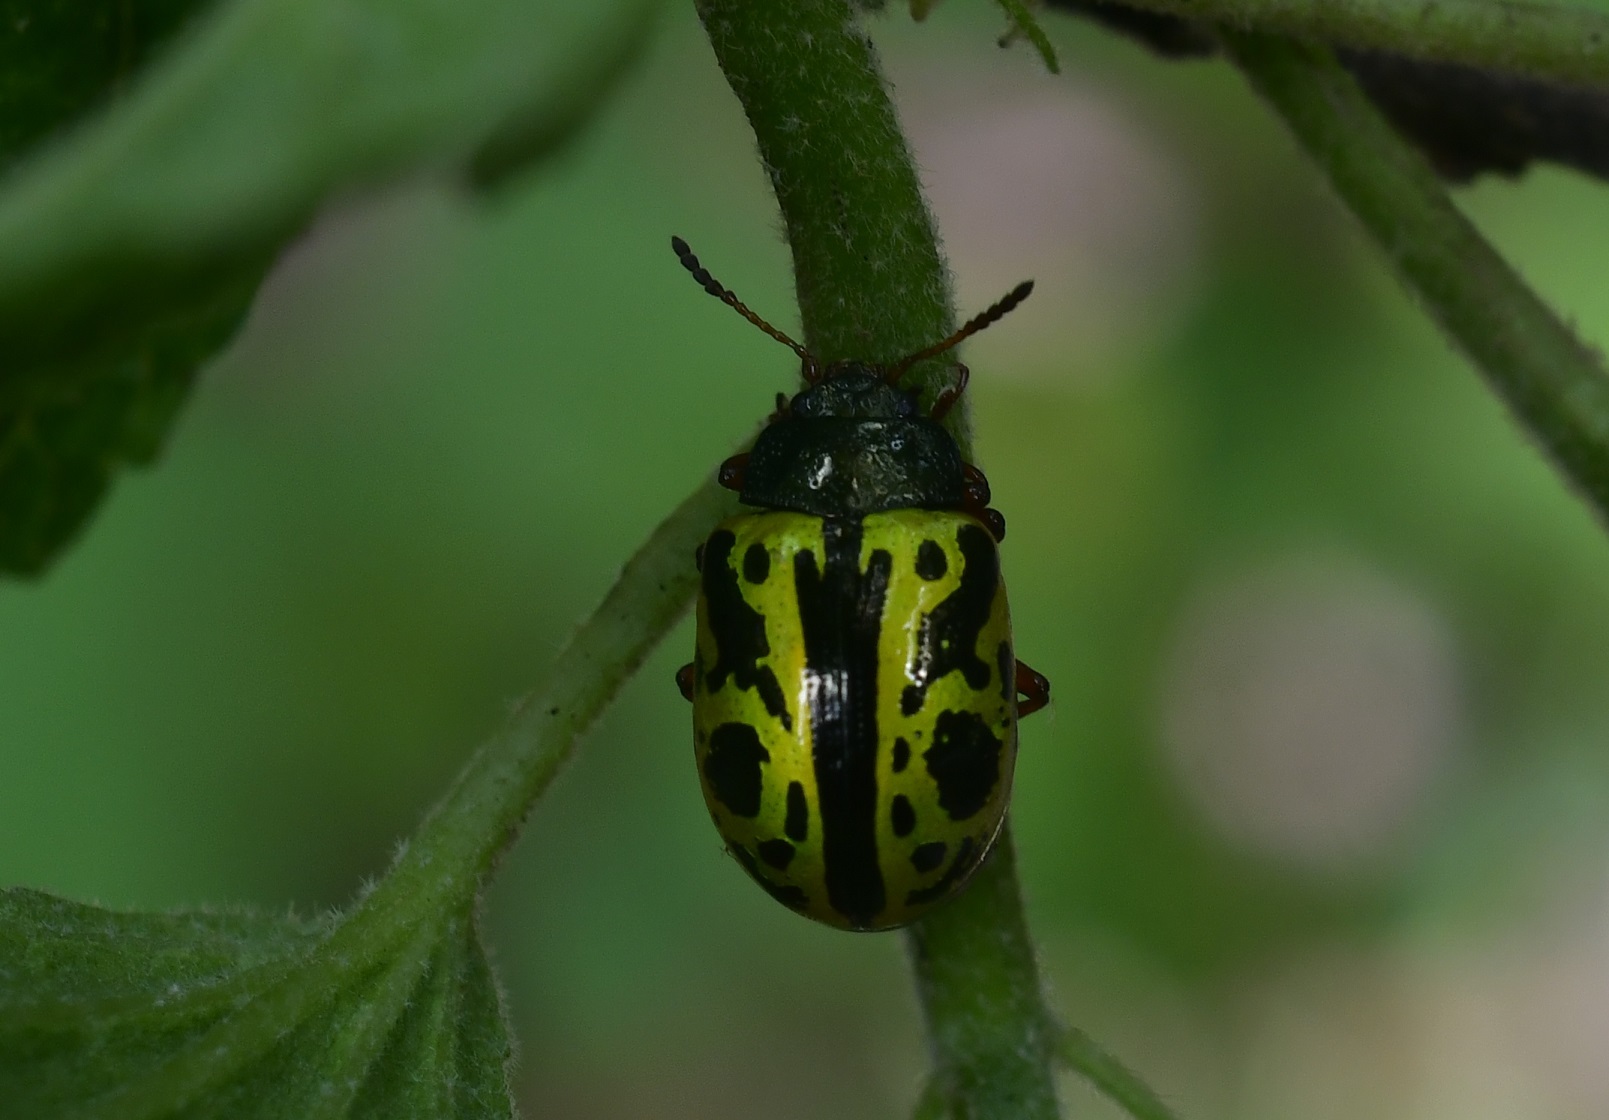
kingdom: Animalia
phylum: Arthropoda
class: Insecta
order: Coleoptera
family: Chrysomelidae
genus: Calligrapha
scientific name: Calligrapha fulvipes
